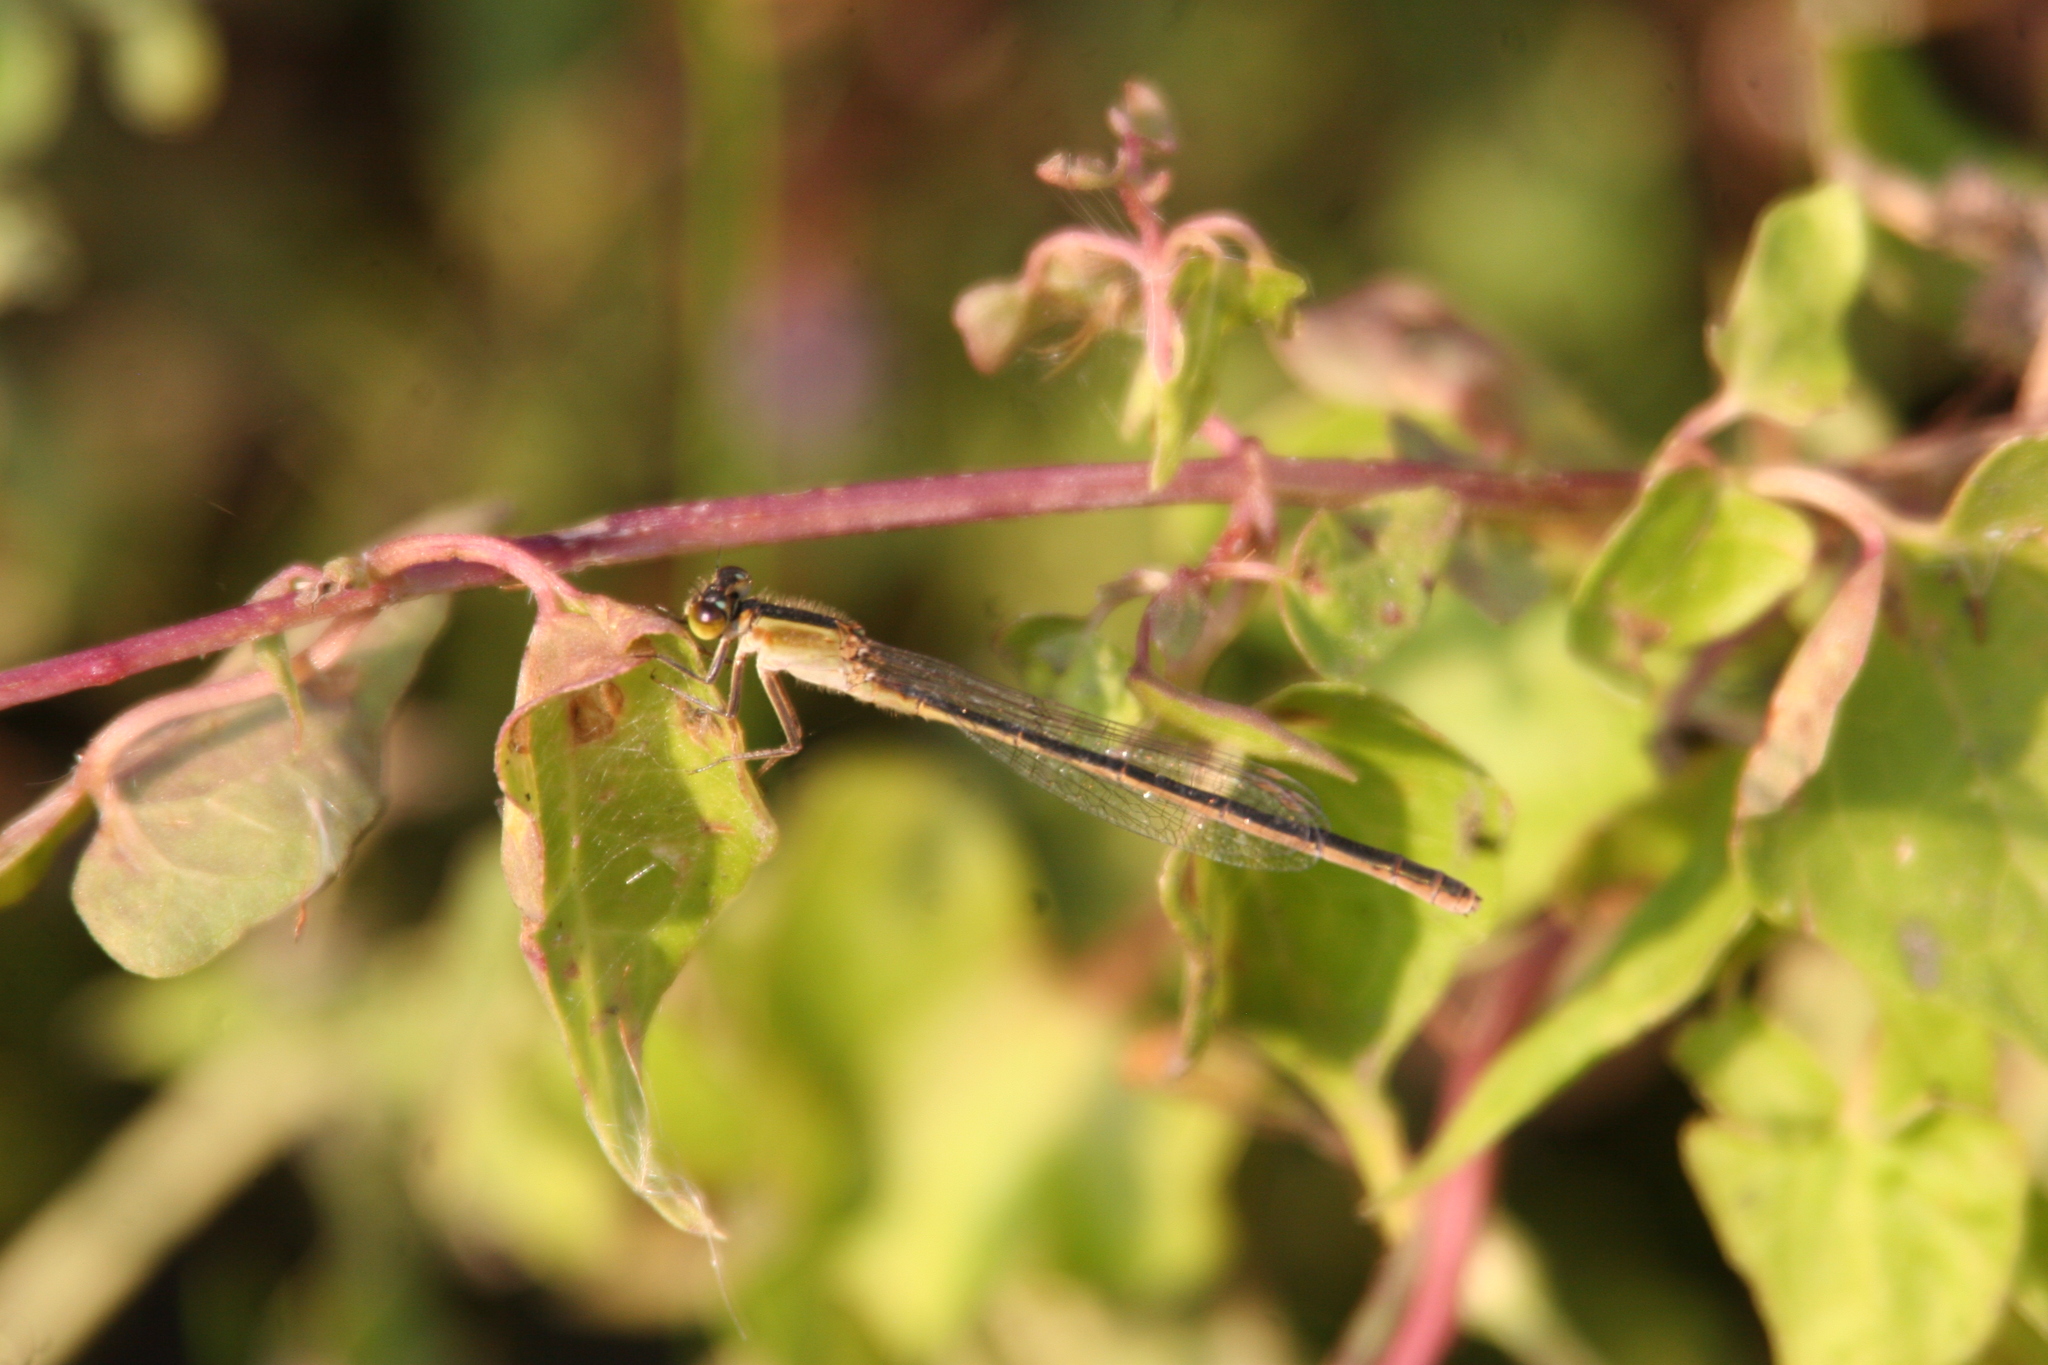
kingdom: Animalia
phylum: Arthropoda
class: Insecta
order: Odonata
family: Coenagrionidae
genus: Ischnura
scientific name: Ischnura ramburii
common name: Rambur's forktail
